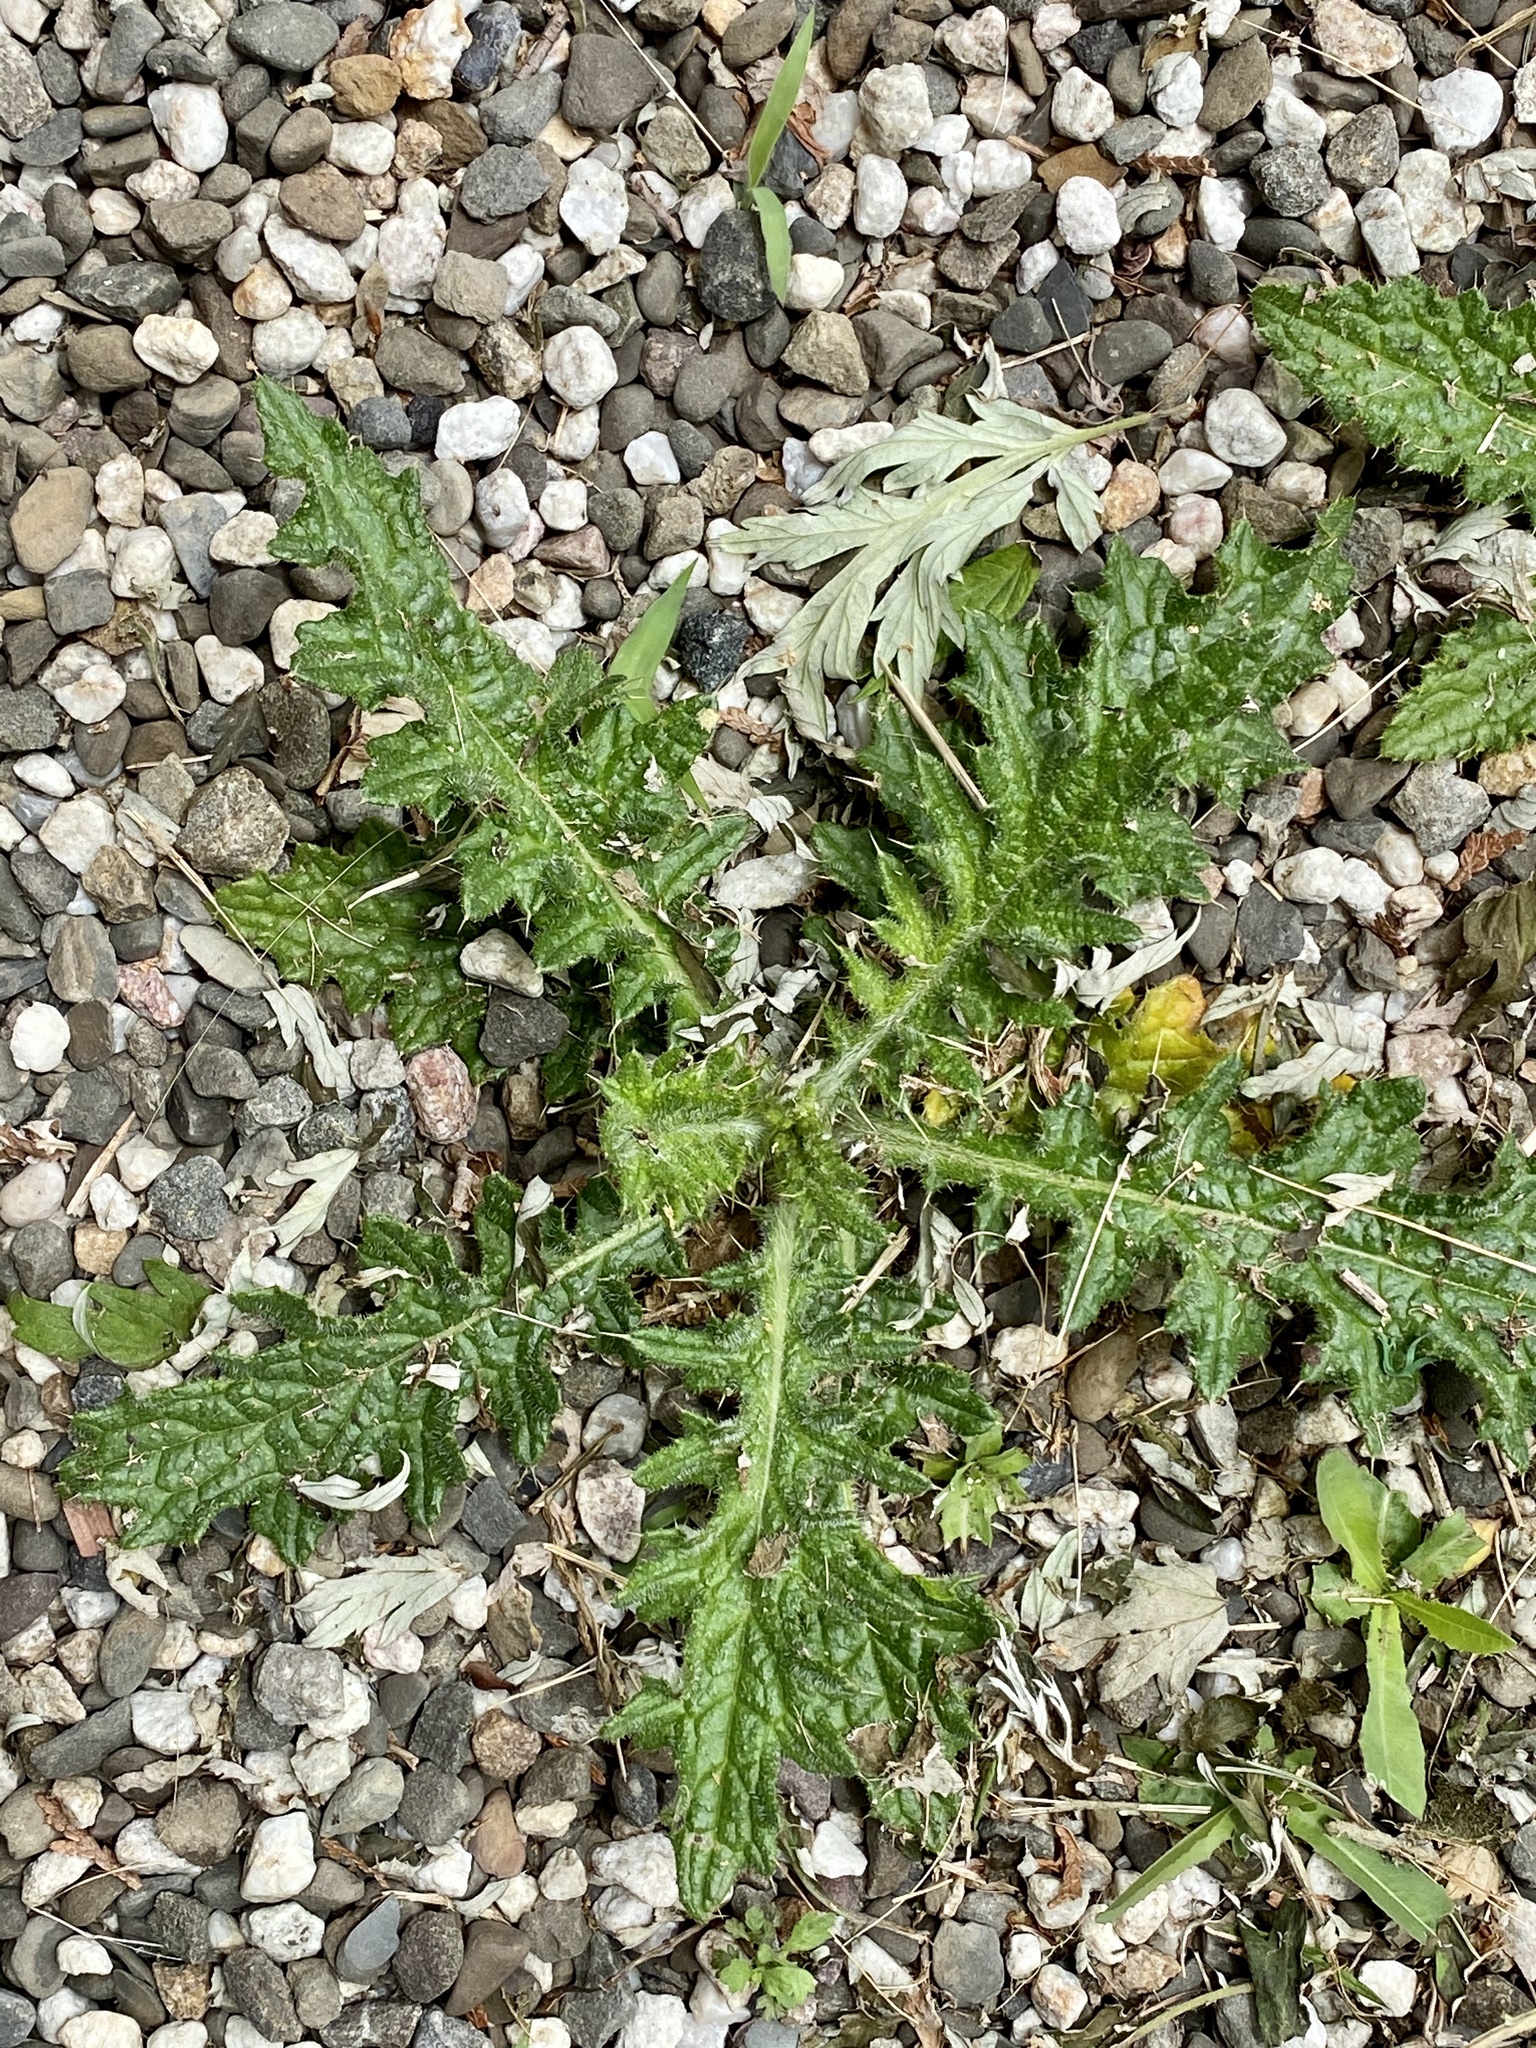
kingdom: Plantae
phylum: Tracheophyta
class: Magnoliopsida
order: Asterales
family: Asteraceae
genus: Cirsium
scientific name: Cirsium vulgare
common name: Bull thistle
